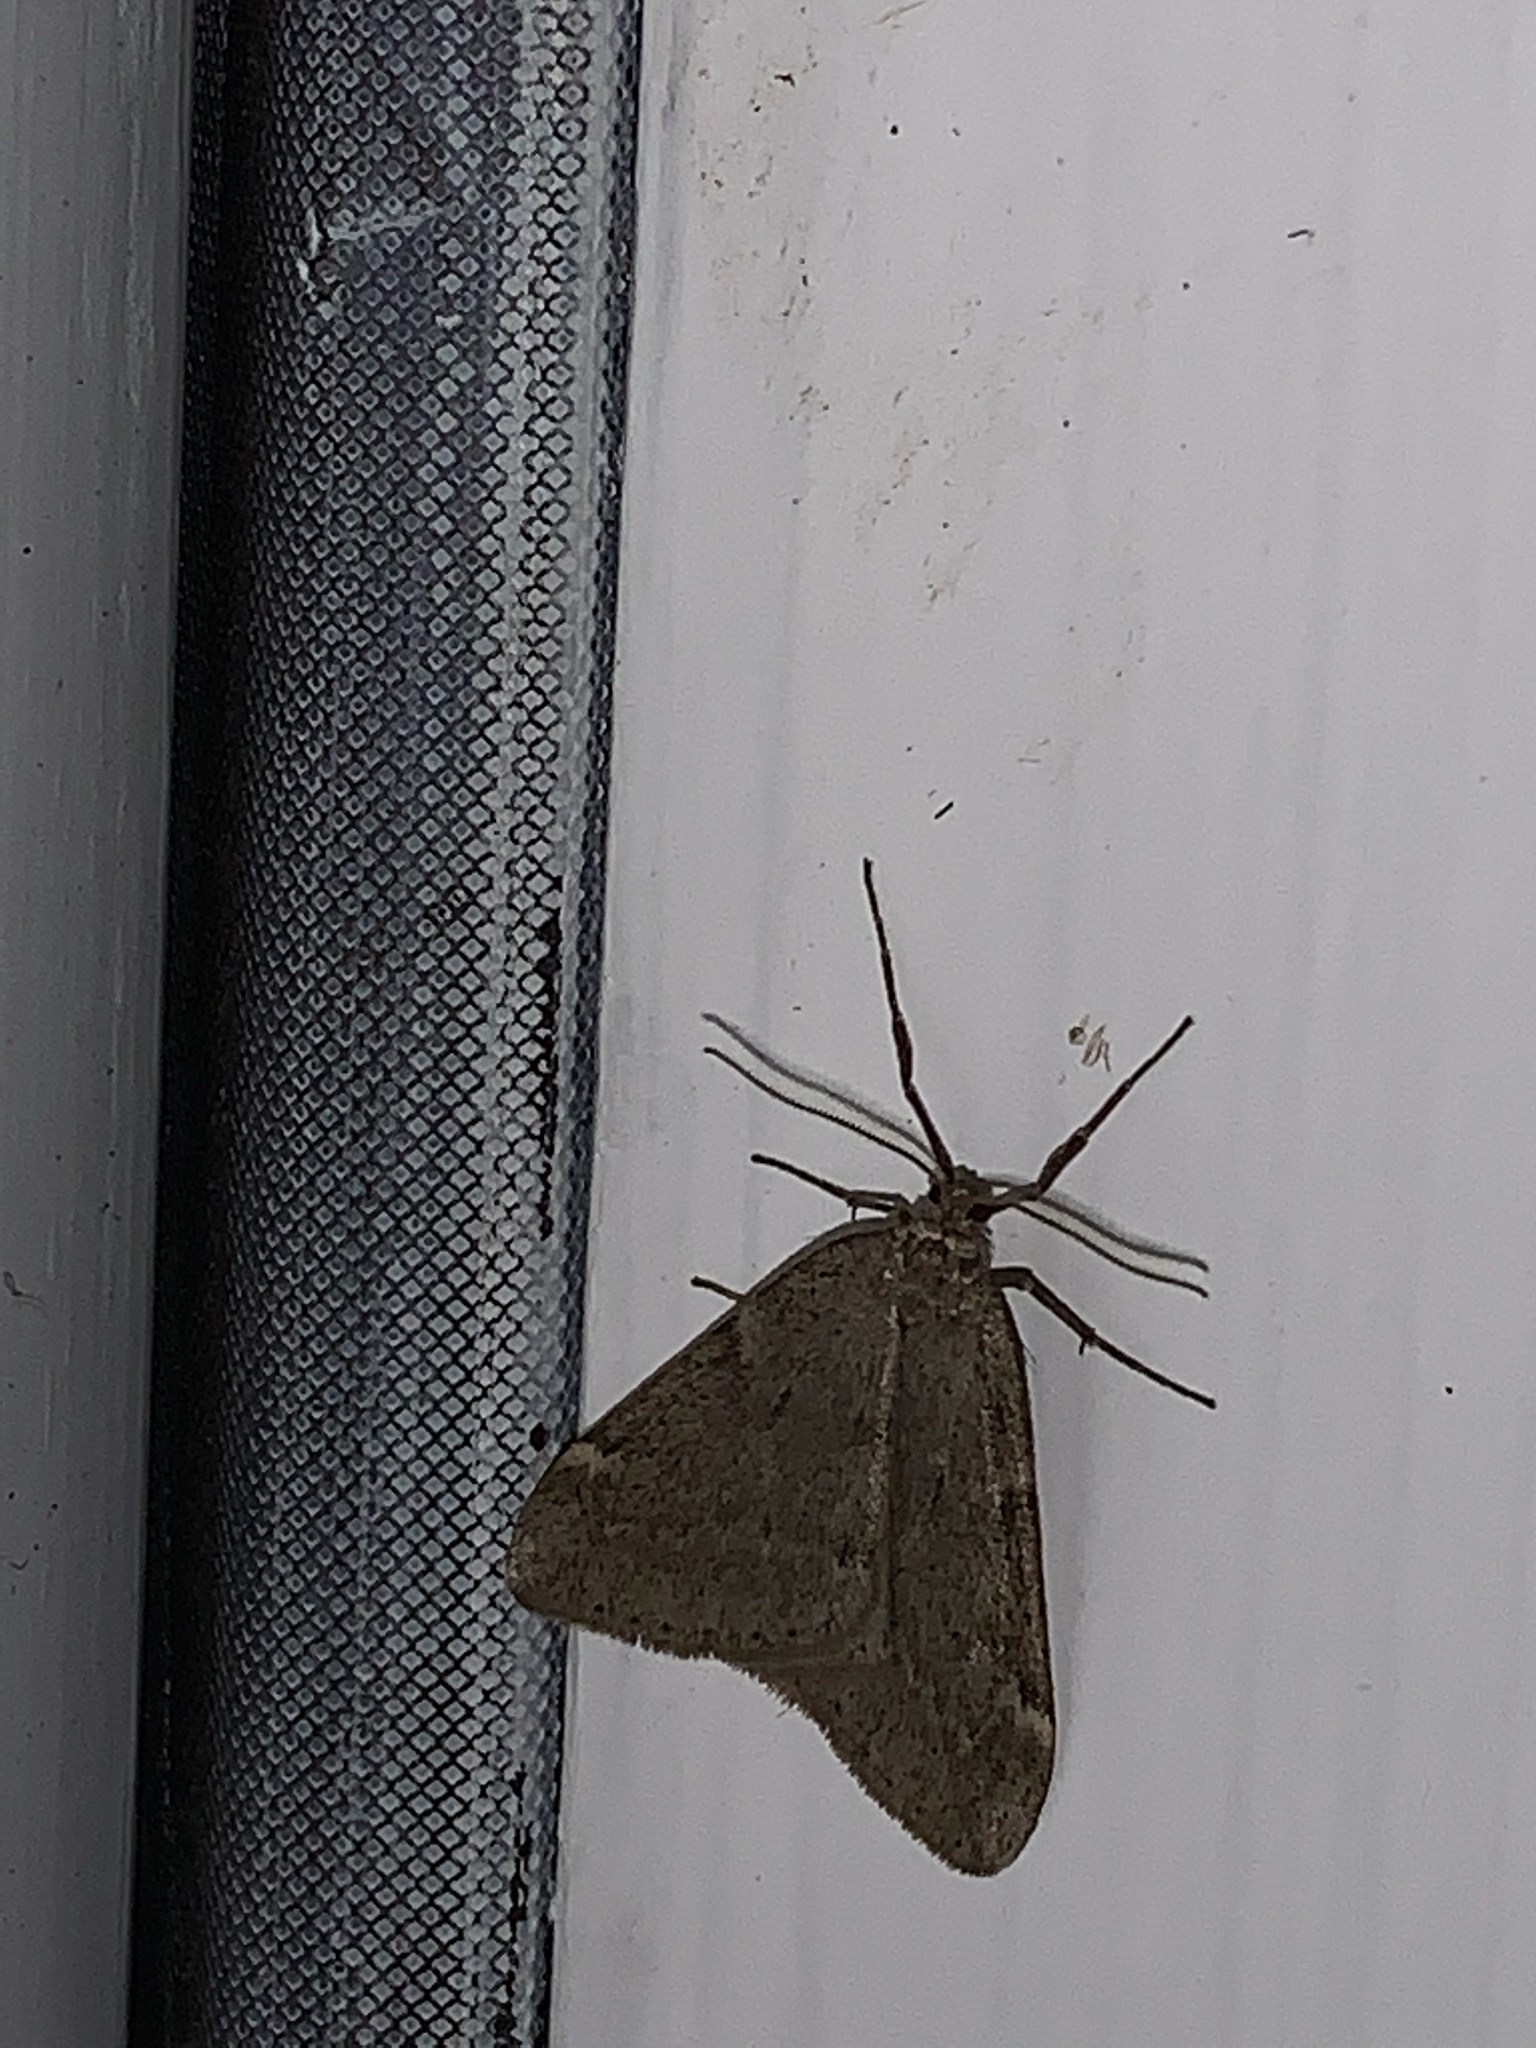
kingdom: Animalia
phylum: Arthropoda
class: Insecta
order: Lepidoptera
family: Geometridae
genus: Alsophila
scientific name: Alsophila pometaria
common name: Fall cankerworm
